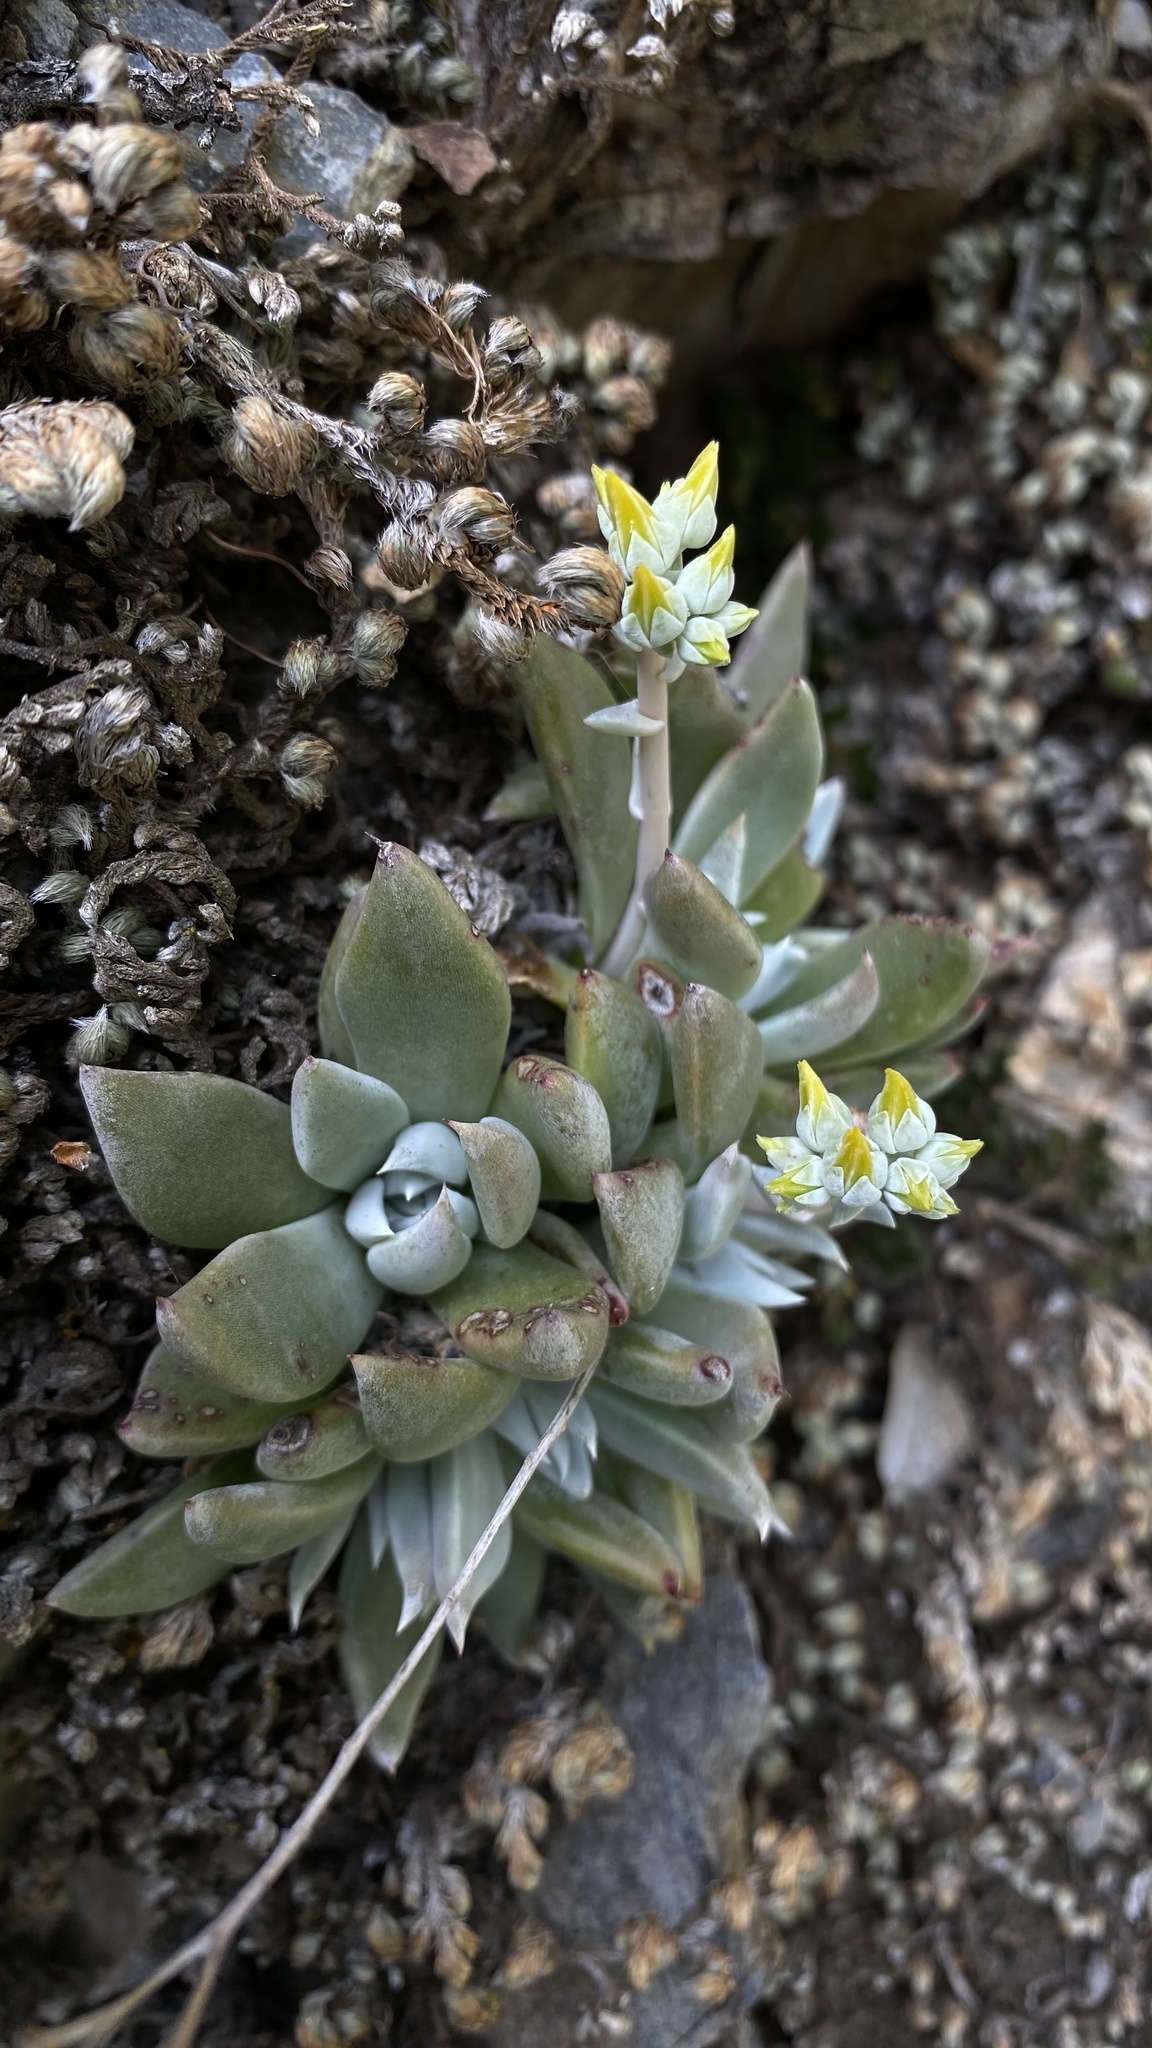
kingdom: Plantae
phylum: Tracheophyta
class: Magnoliopsida
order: Saxifragales
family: Crassulaceae
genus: Dudleya
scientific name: Dudleya abramsii
